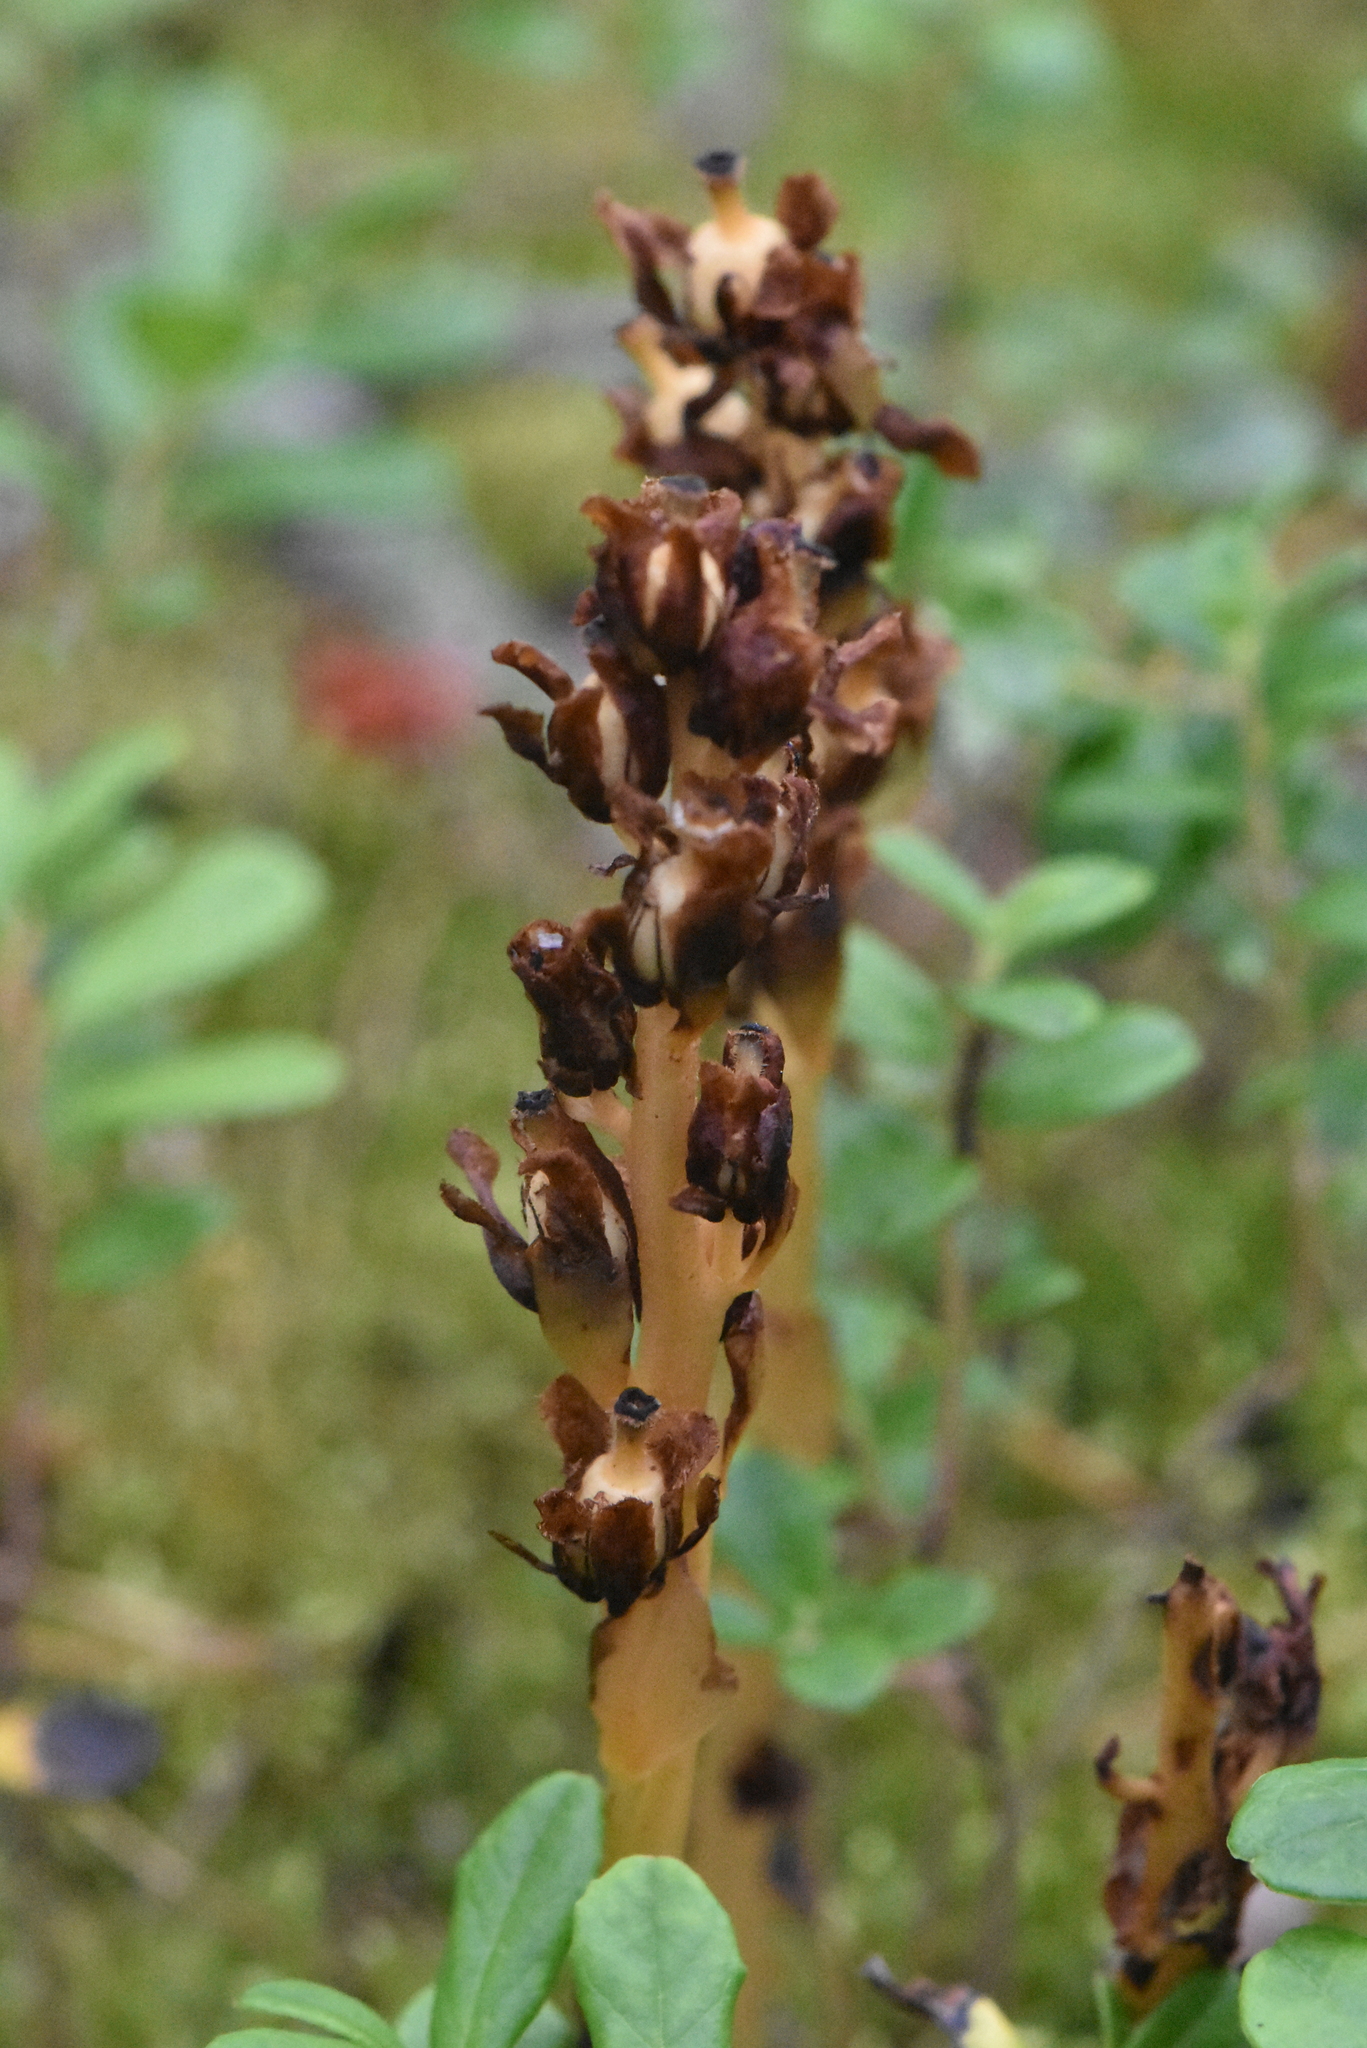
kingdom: Plantae
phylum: Tracheophyta
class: Magnoliopsida
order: Ericales
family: Ericaceae
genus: Hypopitys
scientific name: Hypopitys monotropa
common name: Yellow bird's-nest
